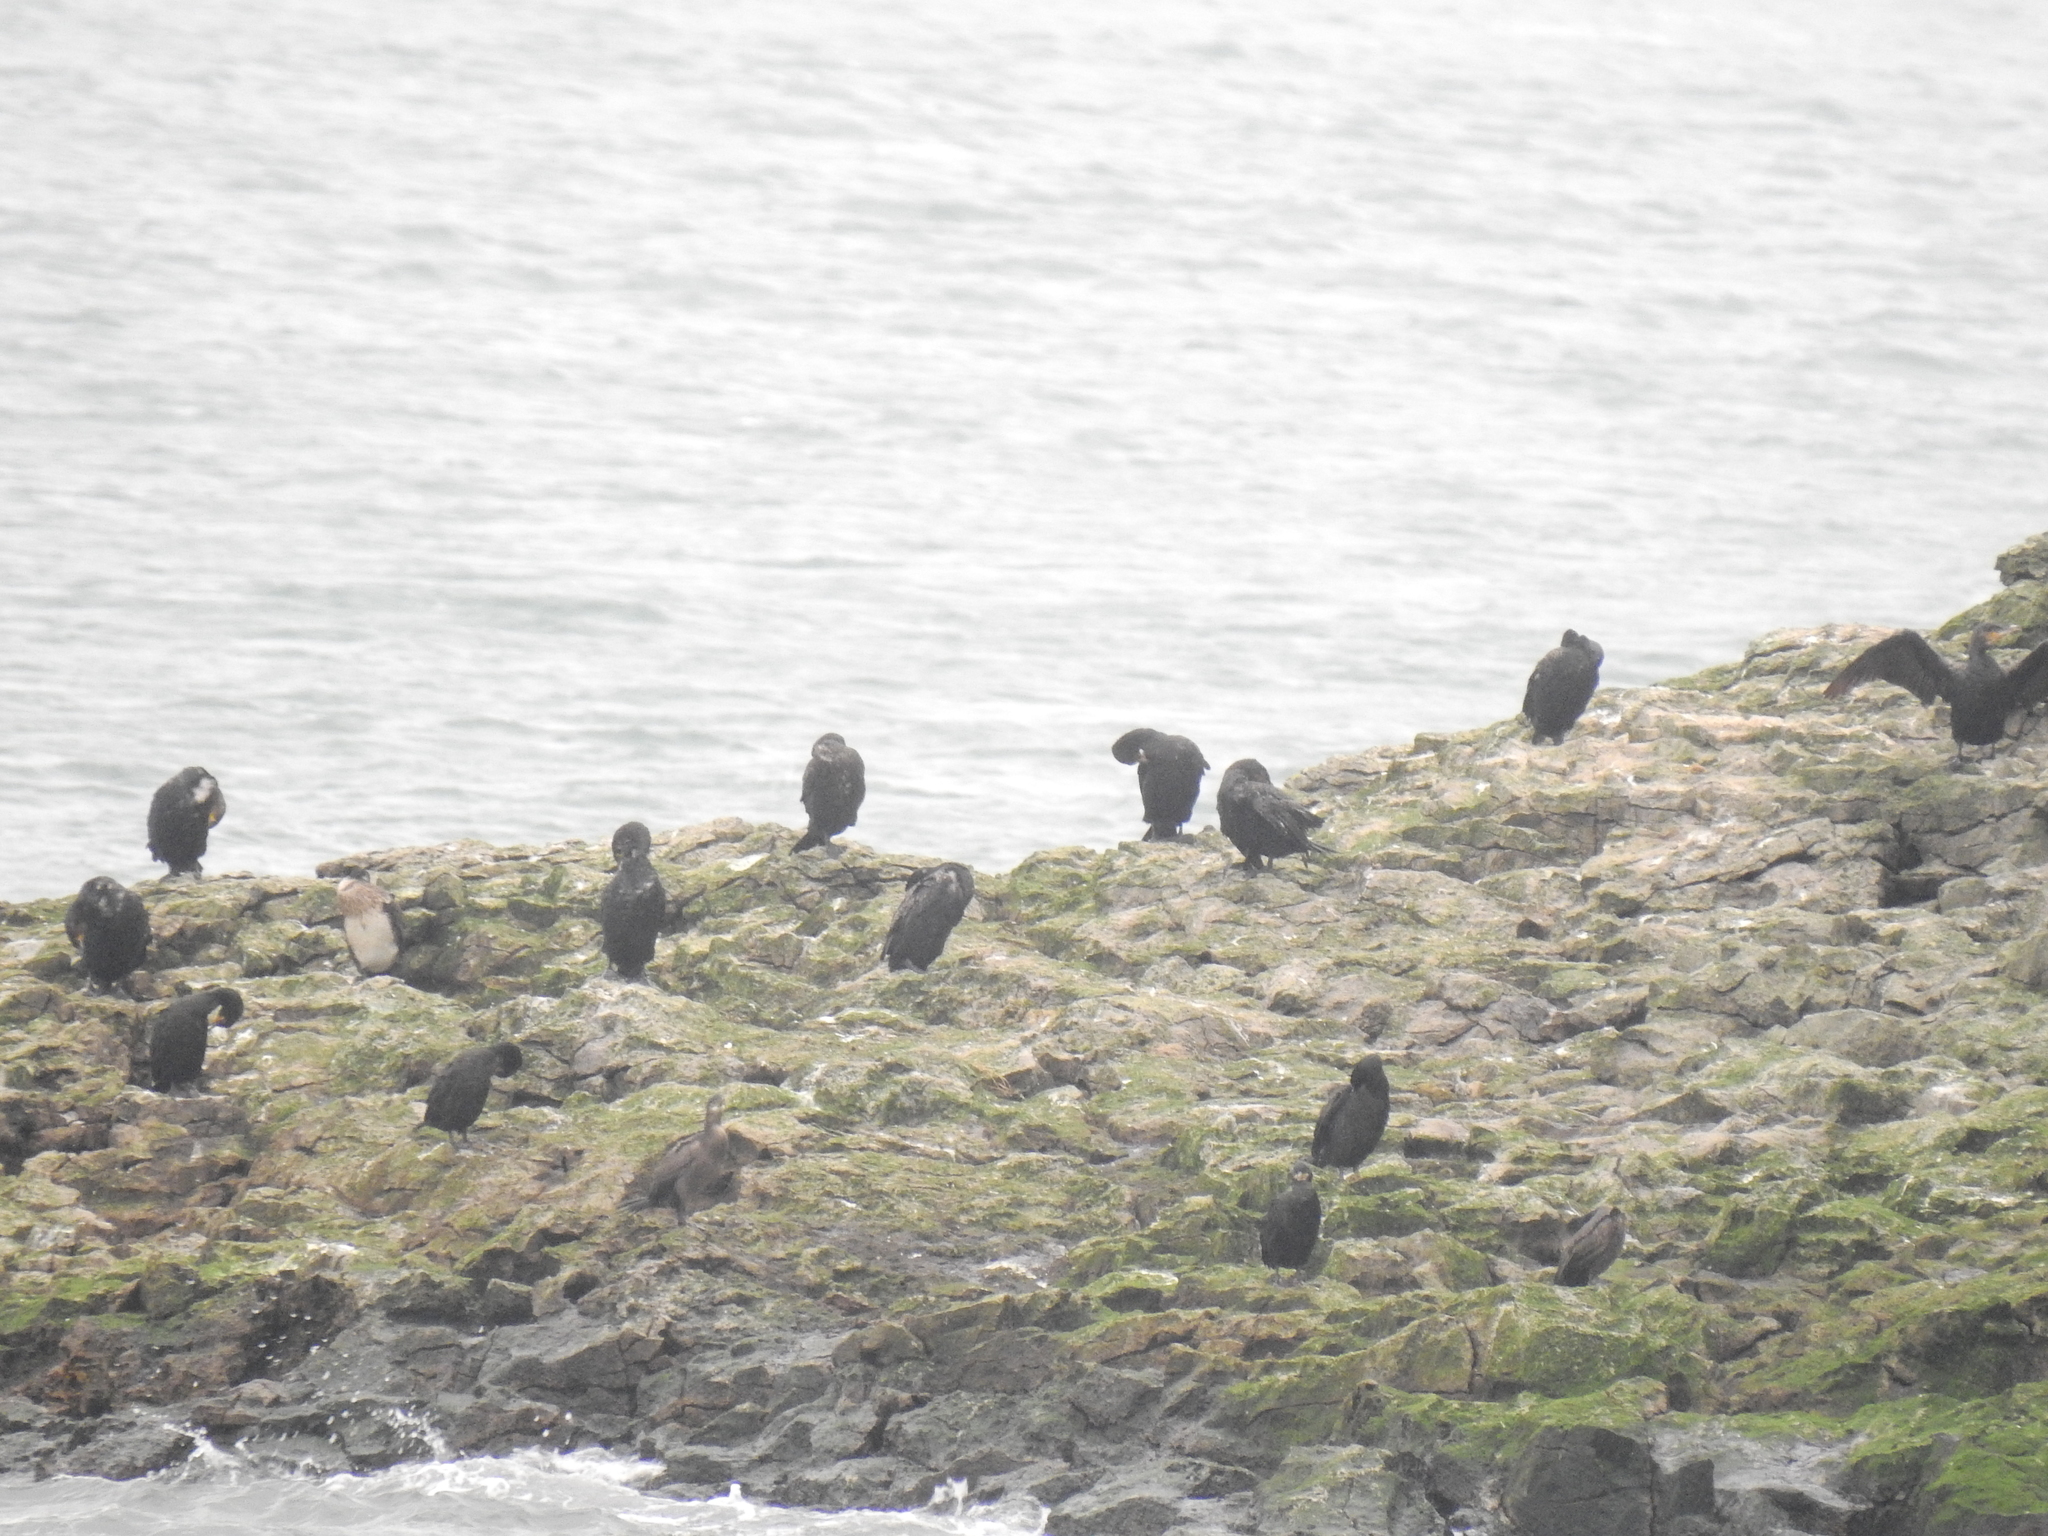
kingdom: Animalia
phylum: Chordata
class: Aves
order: Suliformes
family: Phalacrocoracidae
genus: Phalacrocorax
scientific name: Phalacrocorax carbo
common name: Great cormorant
